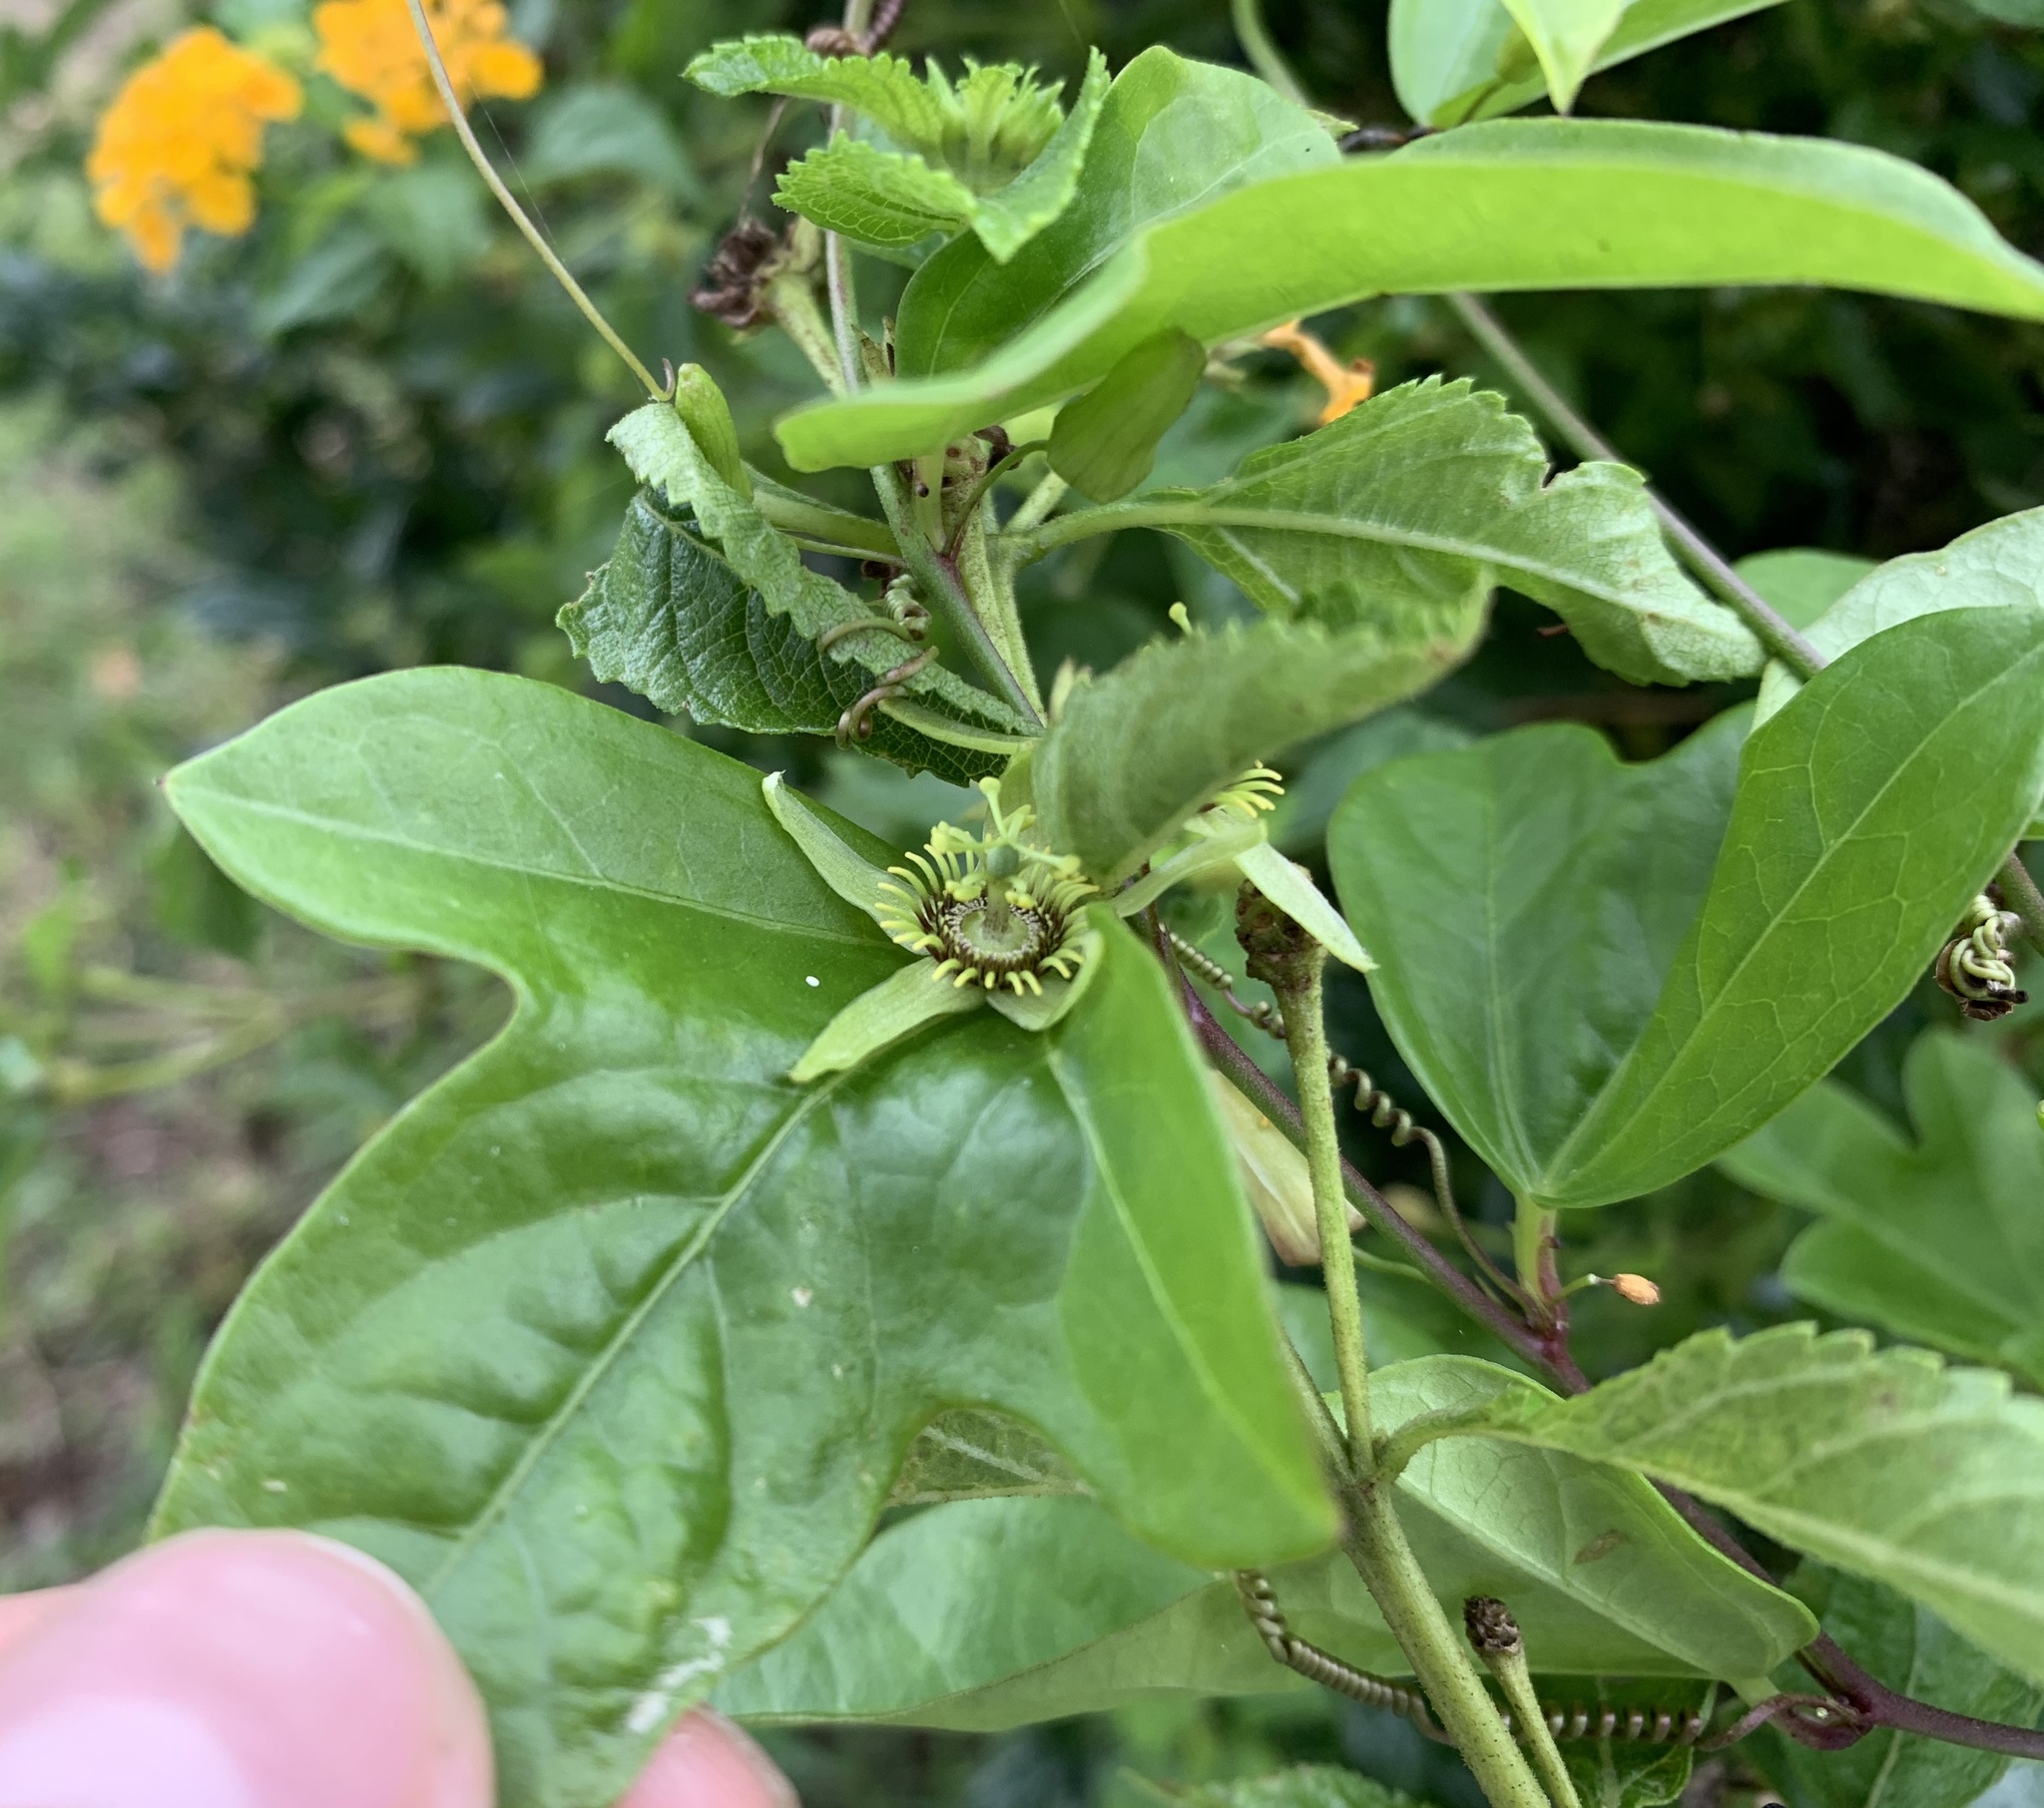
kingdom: Plantae
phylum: Tracheophyta
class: Magnoliopsida
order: Malpighiales
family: Passifloraceae
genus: Passiflora
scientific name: Passiflora pallida
